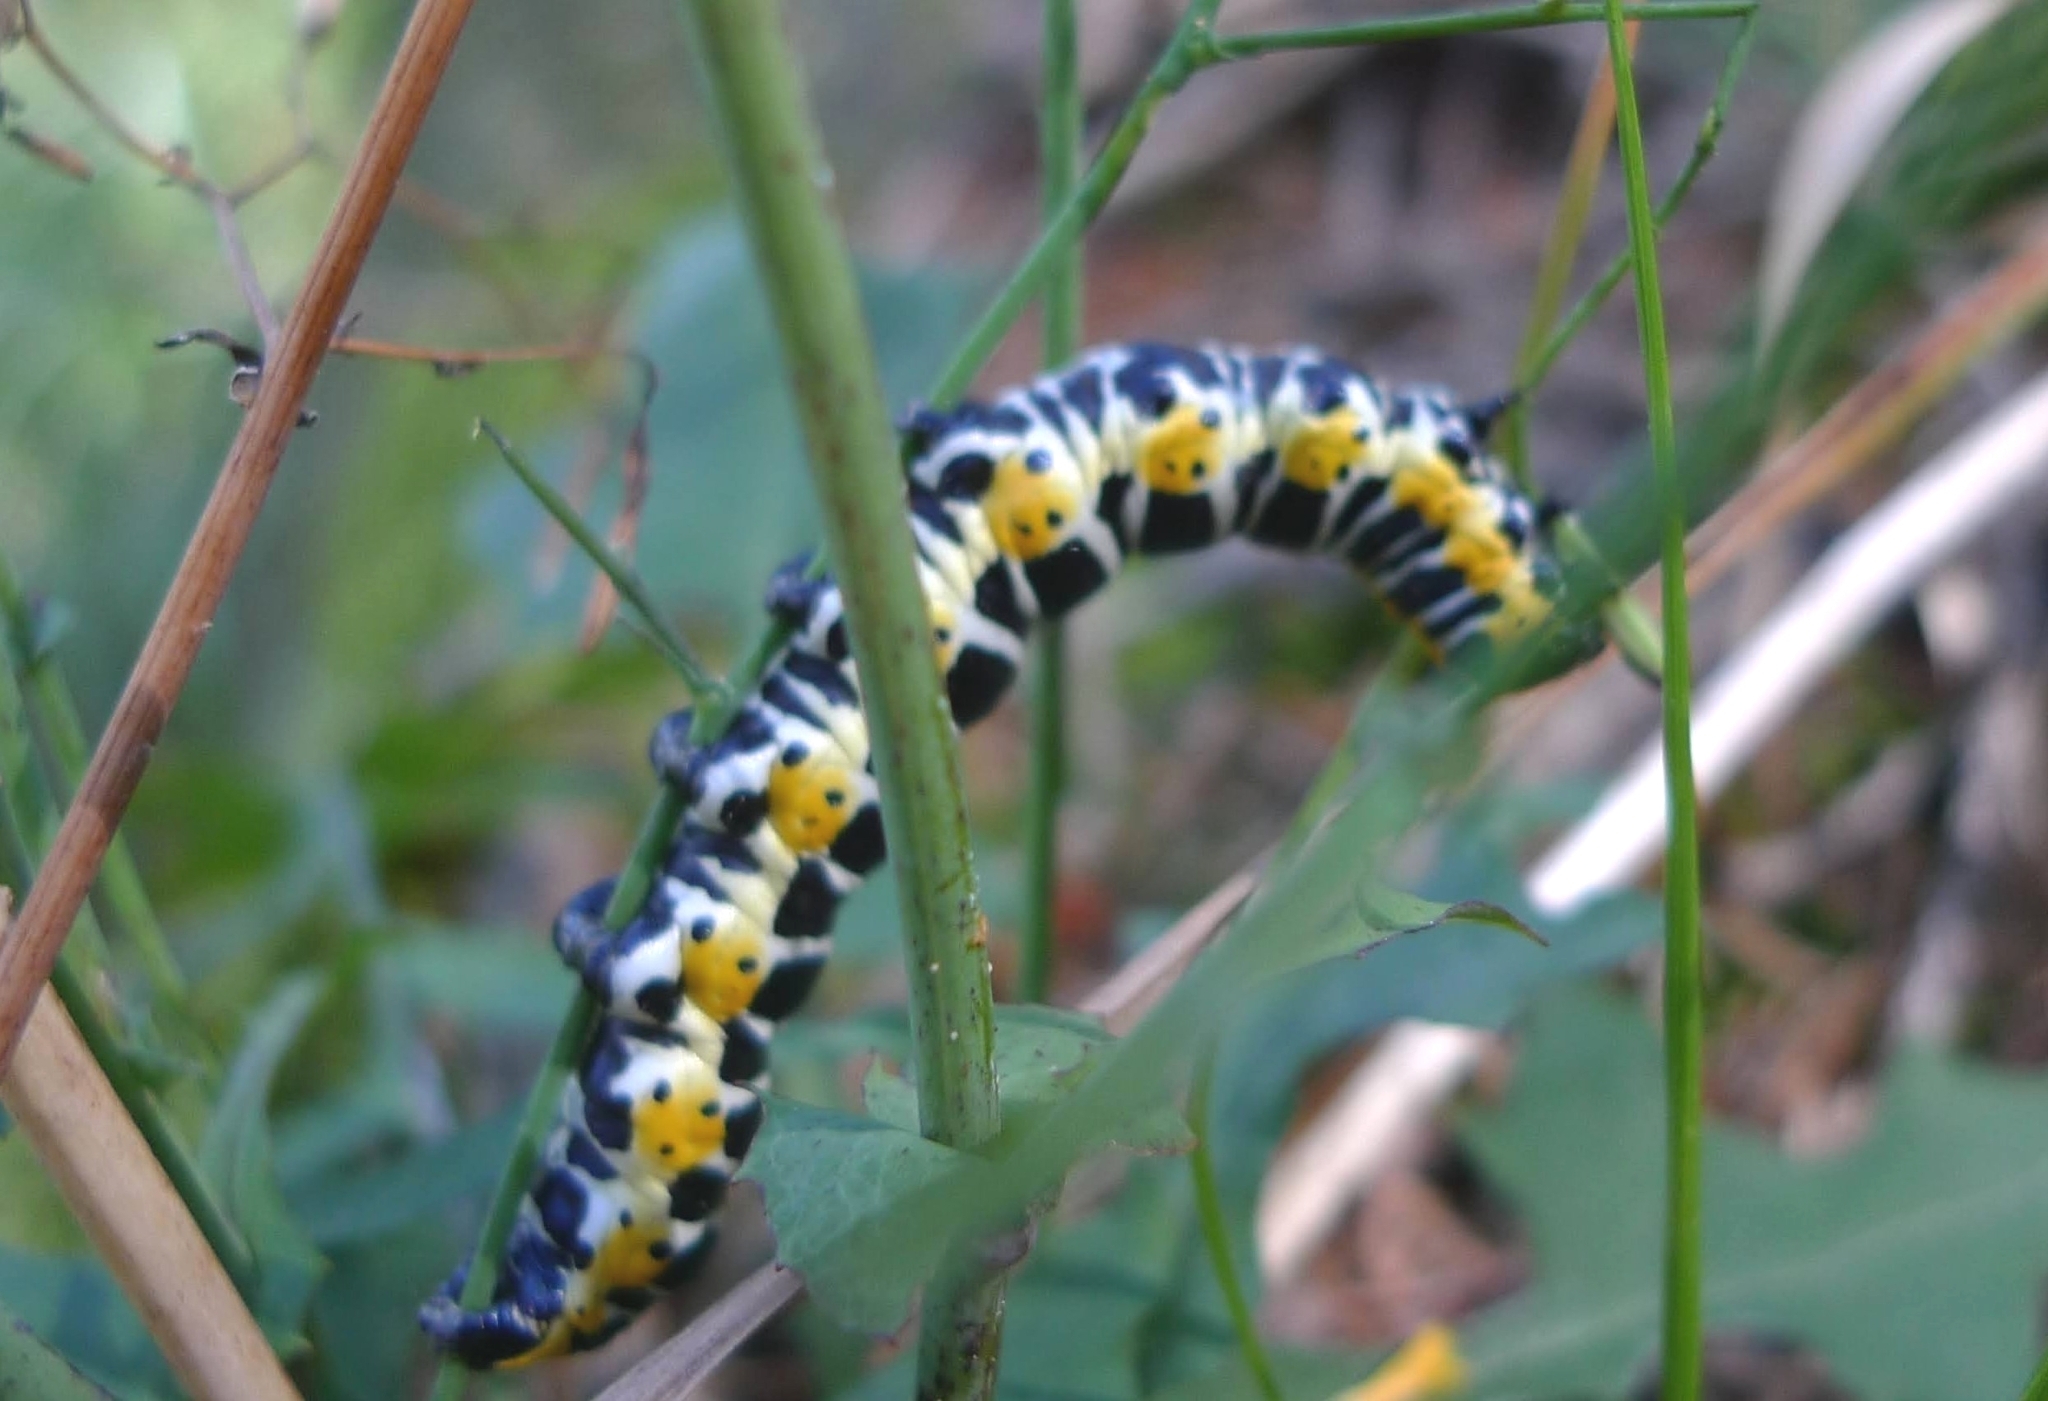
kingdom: Animalia
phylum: Arthropoda
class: Insecta
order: Lepidoptera
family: Noctuidae
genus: Cucullia
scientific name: Cucullia lactucae
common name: Lettuce shark
